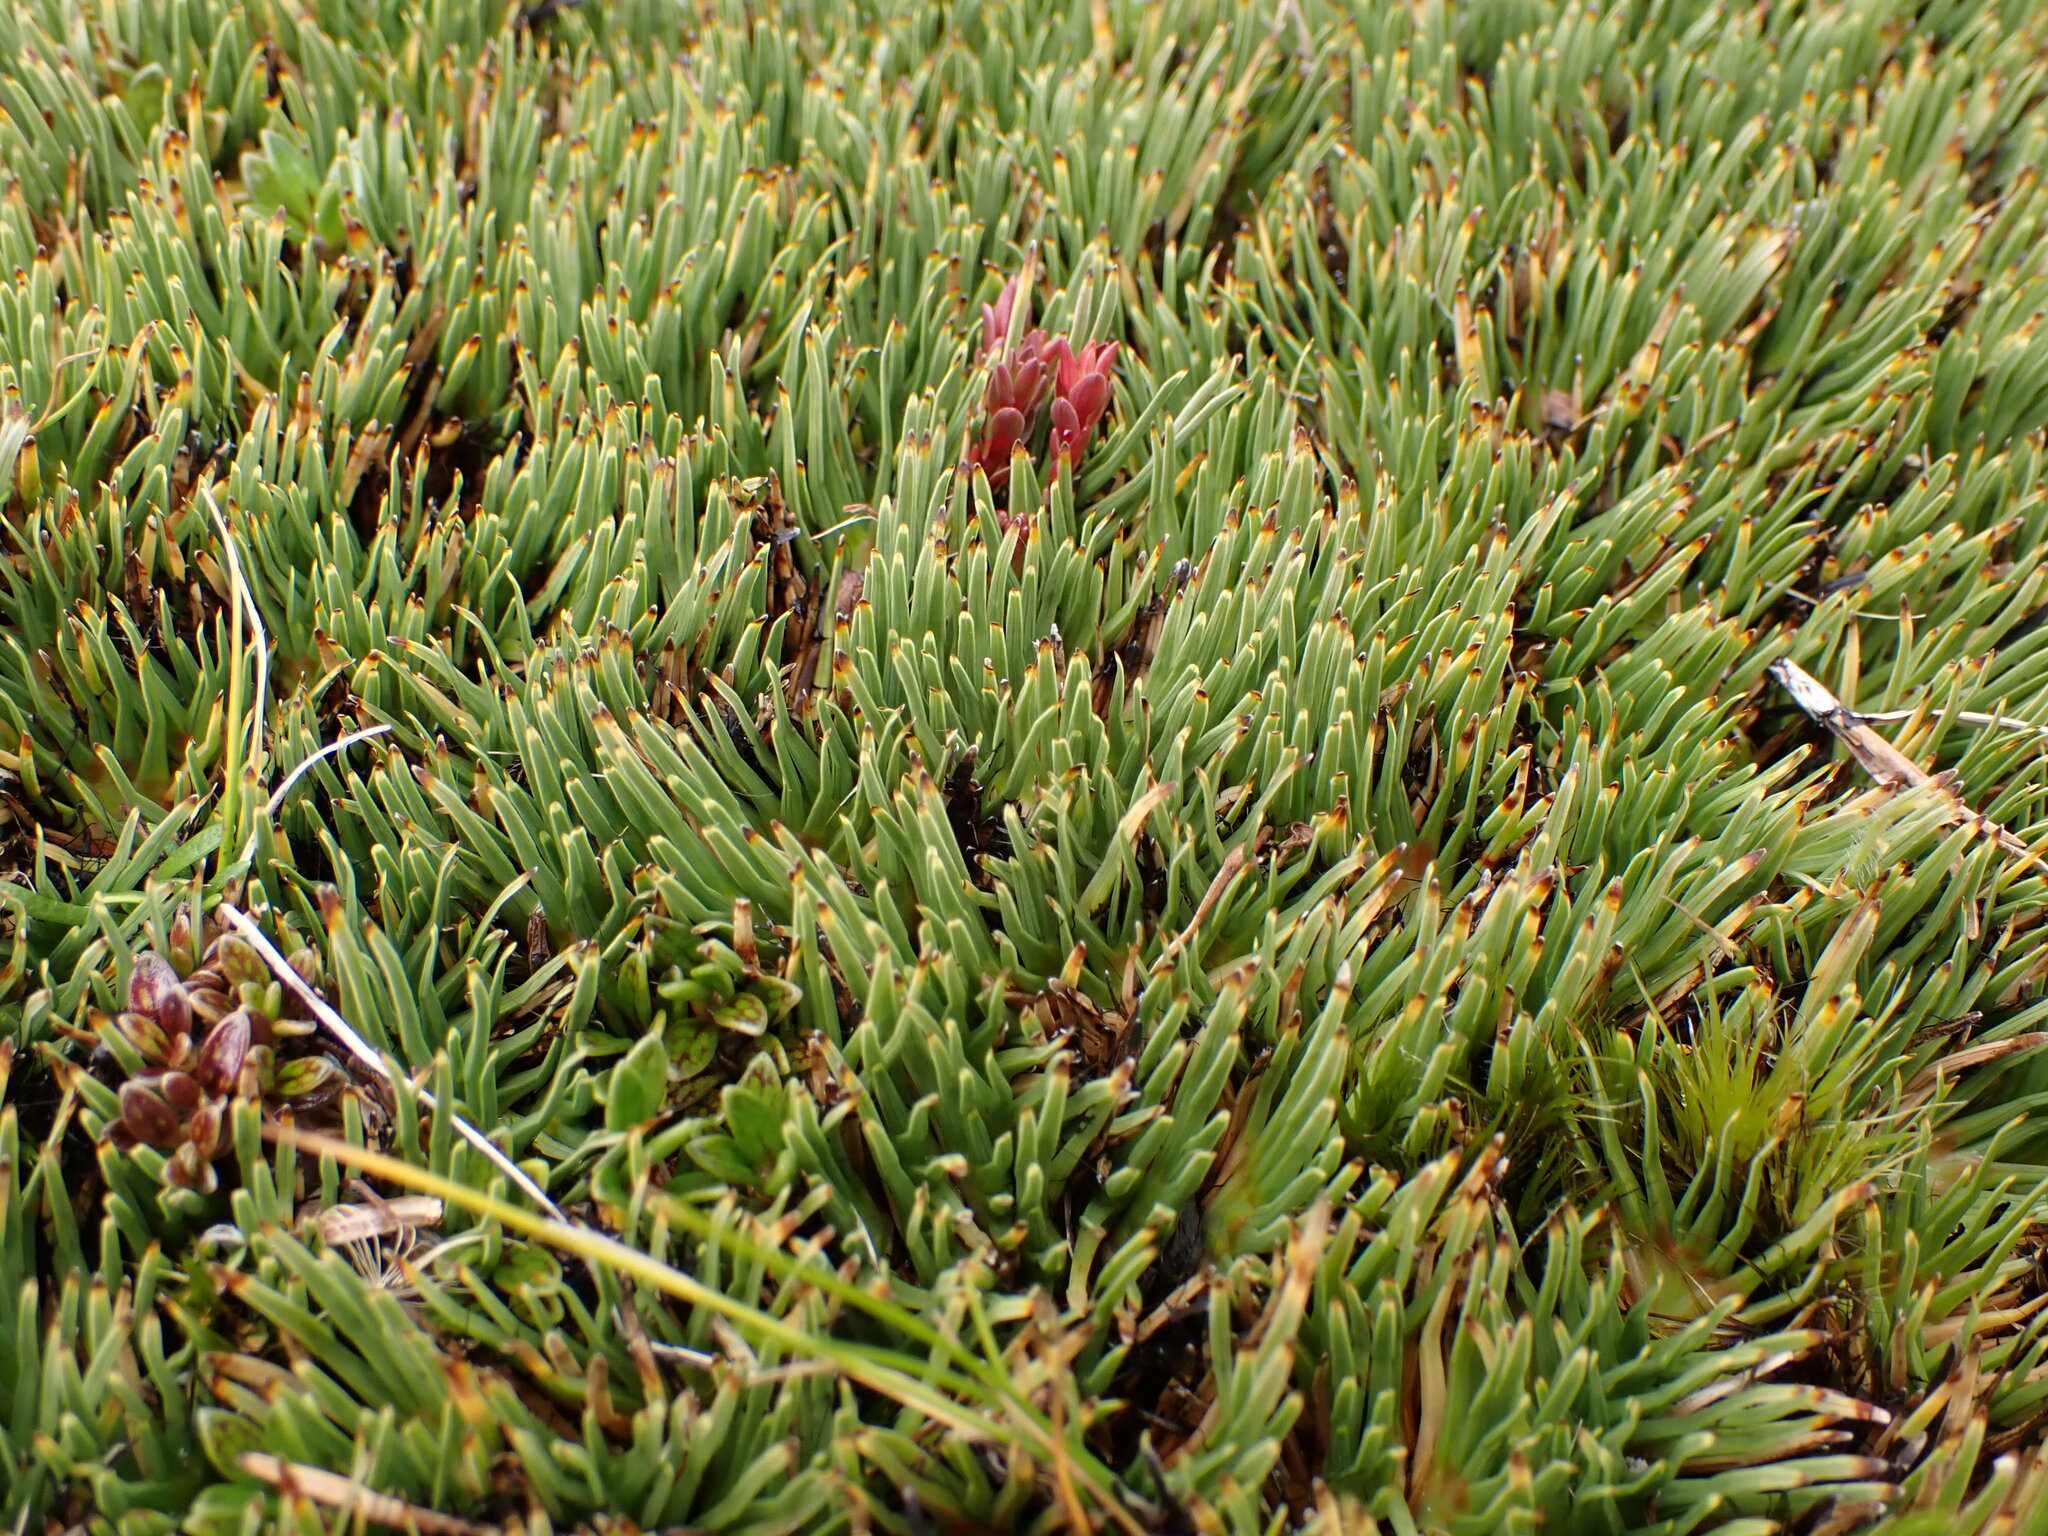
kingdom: Plantae
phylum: Tracheophyta
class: Liliopsida
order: Poales
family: Cyperaceae
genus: Oreobolus
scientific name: Oreobolus pectinatus
